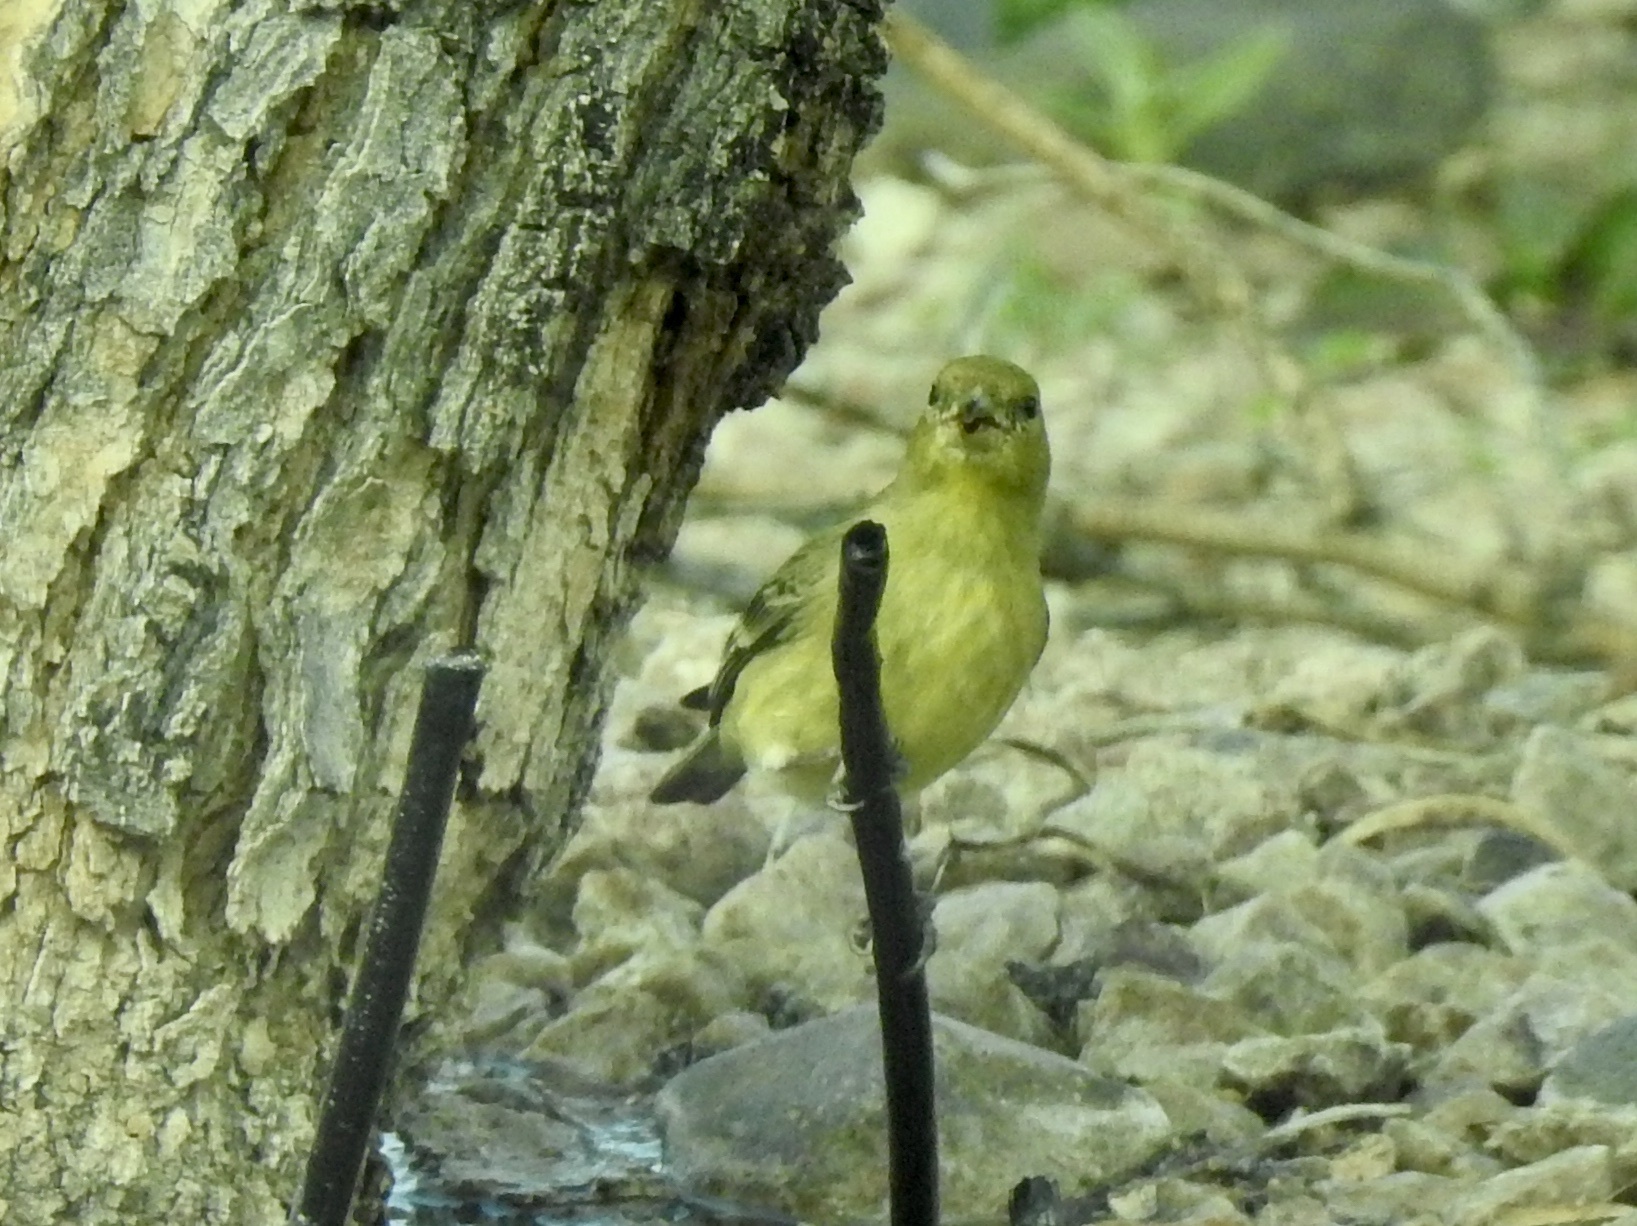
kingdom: Animalia
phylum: Chordata
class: Aves
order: Passeriformes
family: Fringillidae
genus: Spinus
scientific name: Spinus psaltria
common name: Lesser goldfinch
